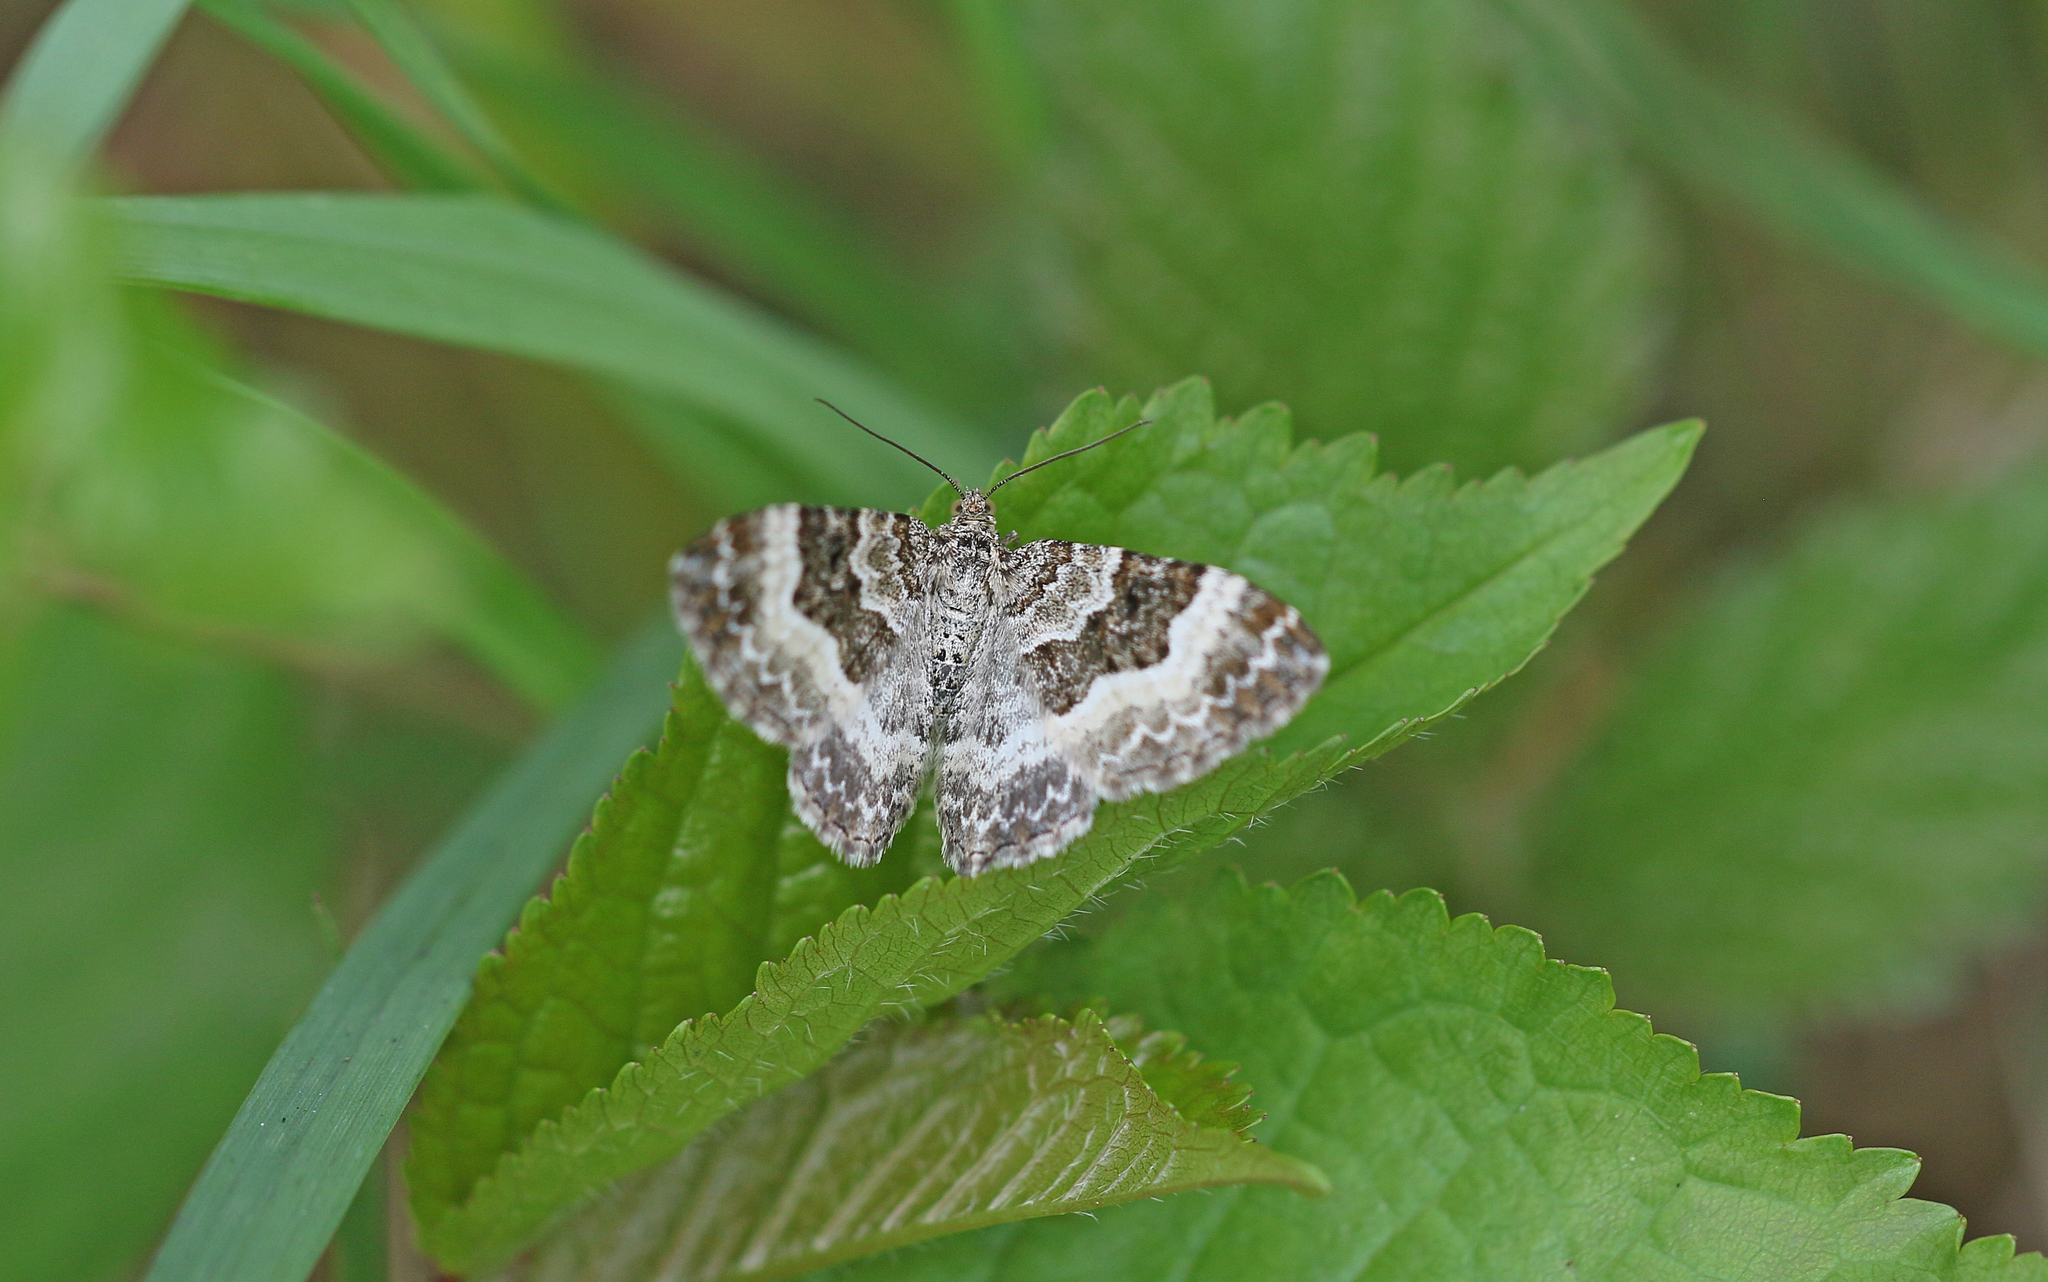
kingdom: Animalia
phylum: Arthropoda
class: Insecta
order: Lepidoptera
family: Geometridae
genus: Epirrhoe
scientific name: Epirrhoe alternata
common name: Common carpet
